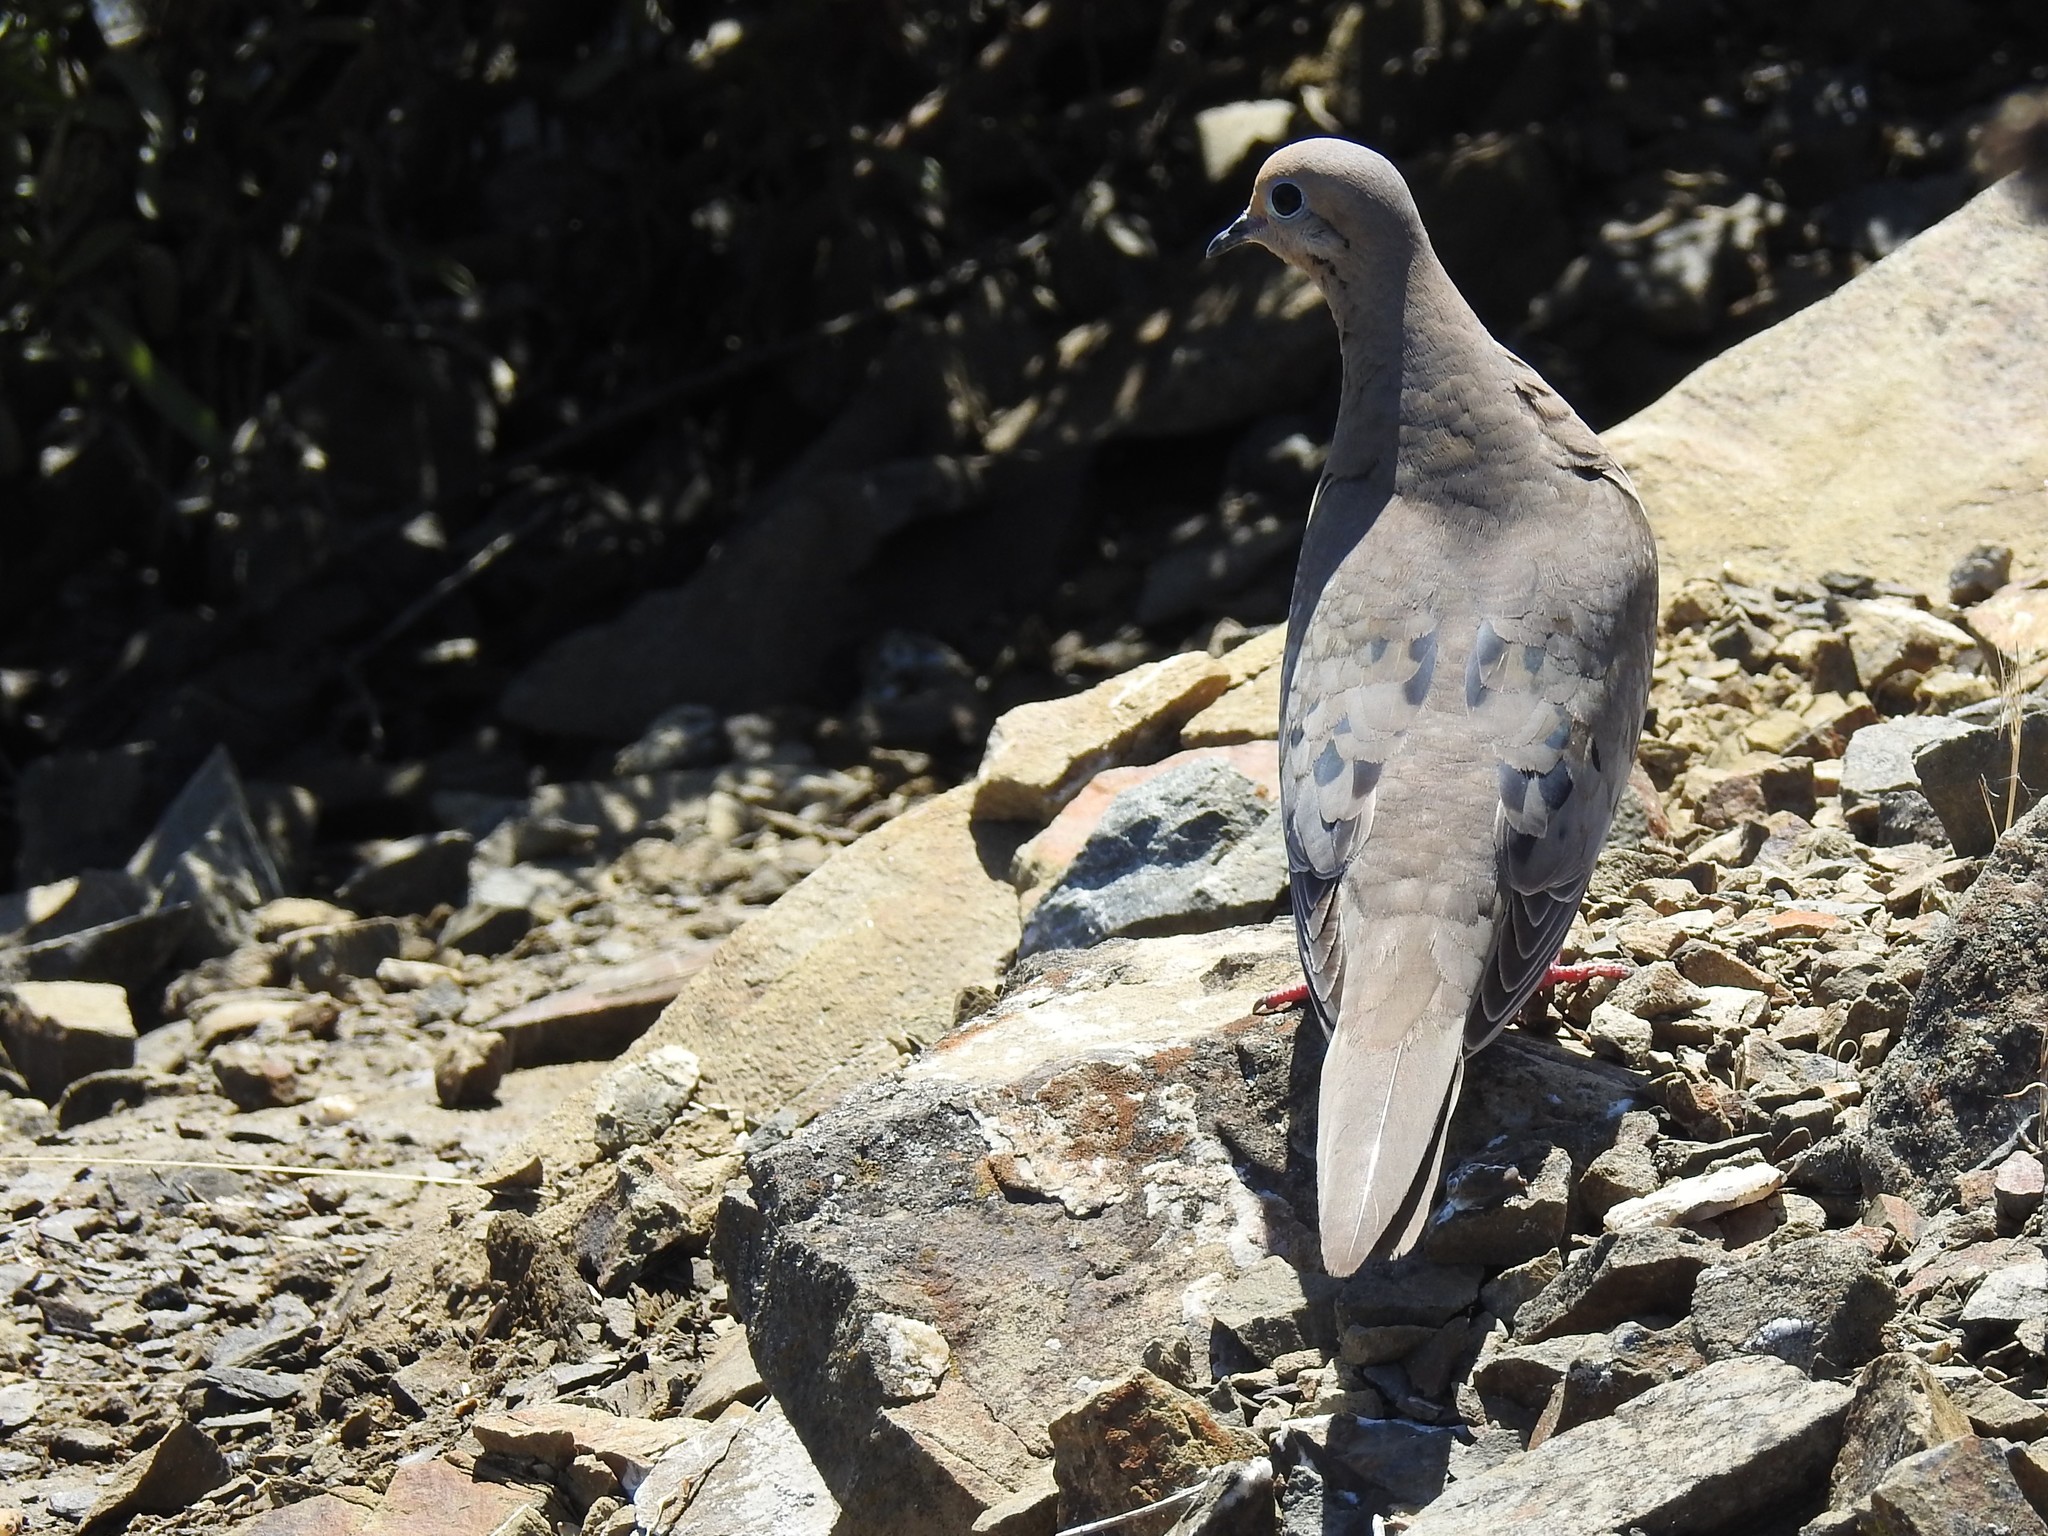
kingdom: Animalia
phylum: Chordata
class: Aves
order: Columbiformes
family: Columbidae
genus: Zenaida
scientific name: Zenaida macroura
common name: Mourning dove
